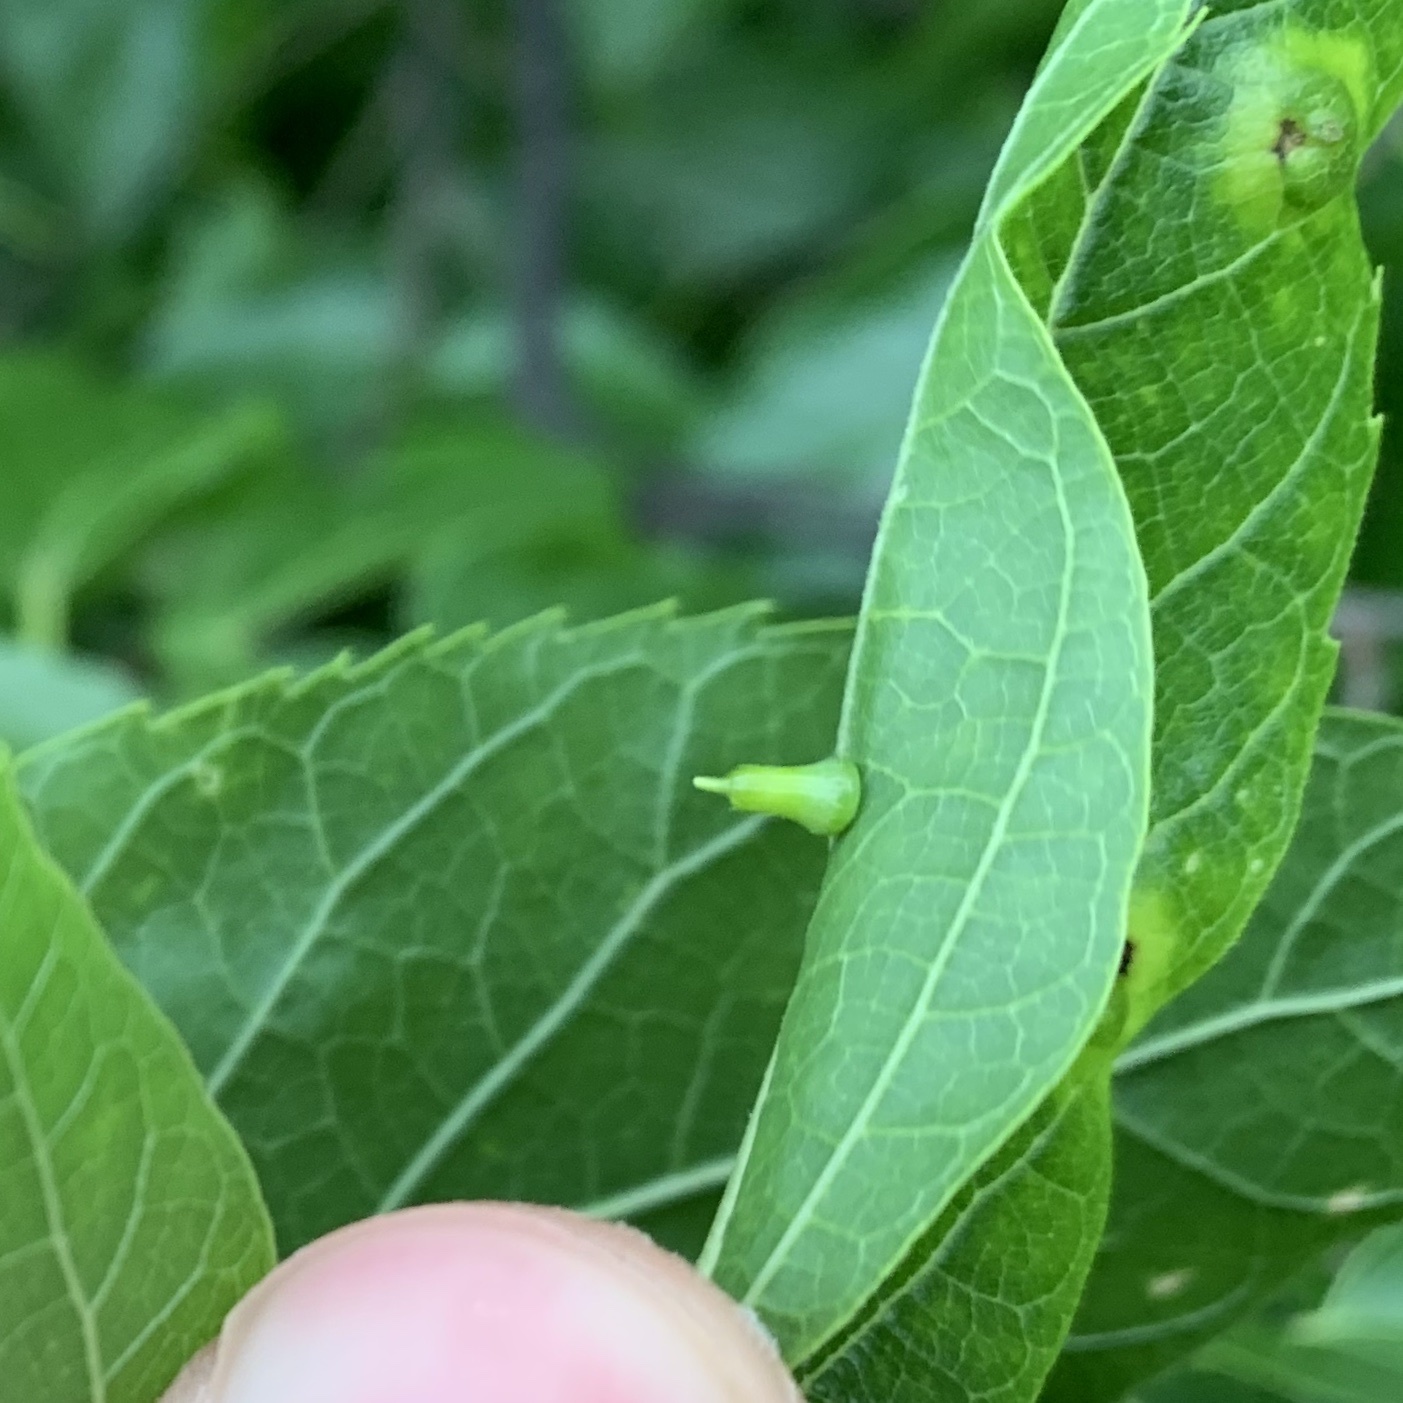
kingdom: Animalia
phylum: Arthropoda
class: Insecta
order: Diptera
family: Cecidomyiidae
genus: Celticecis
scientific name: Celticecis aciculata
